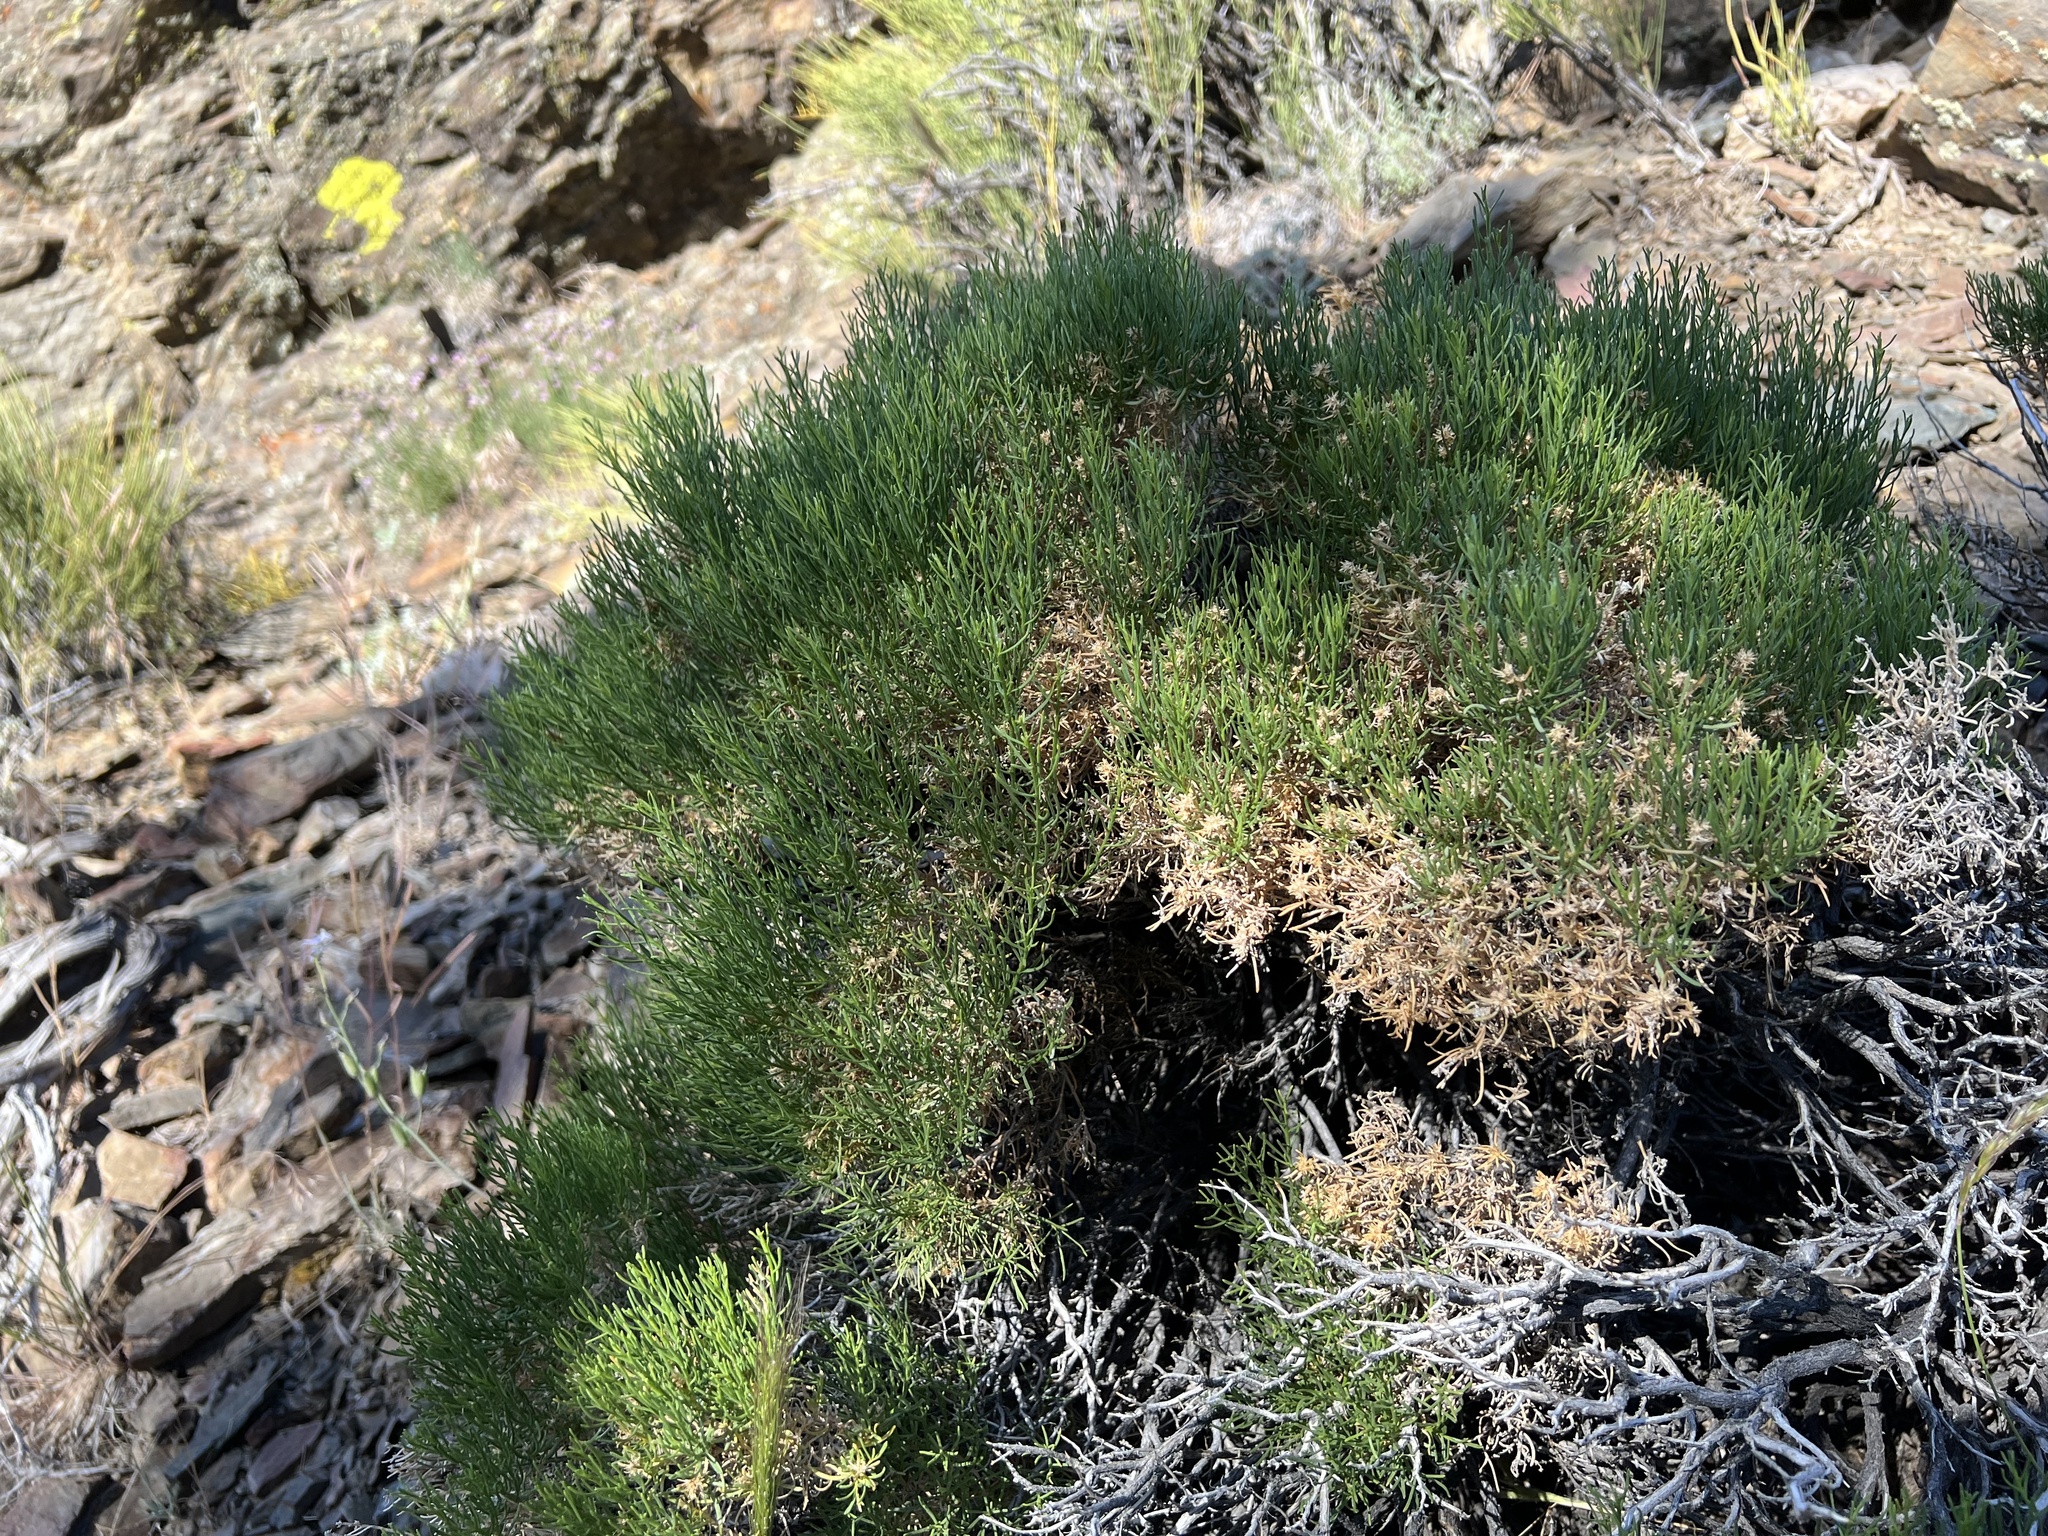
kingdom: Plantae
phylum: Tracheophyta
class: Magnoliopsida
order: Asterales
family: Asteraceae
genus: Ericameria
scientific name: Ericameria teretifolia
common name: Round-leaf rabbitbrush
